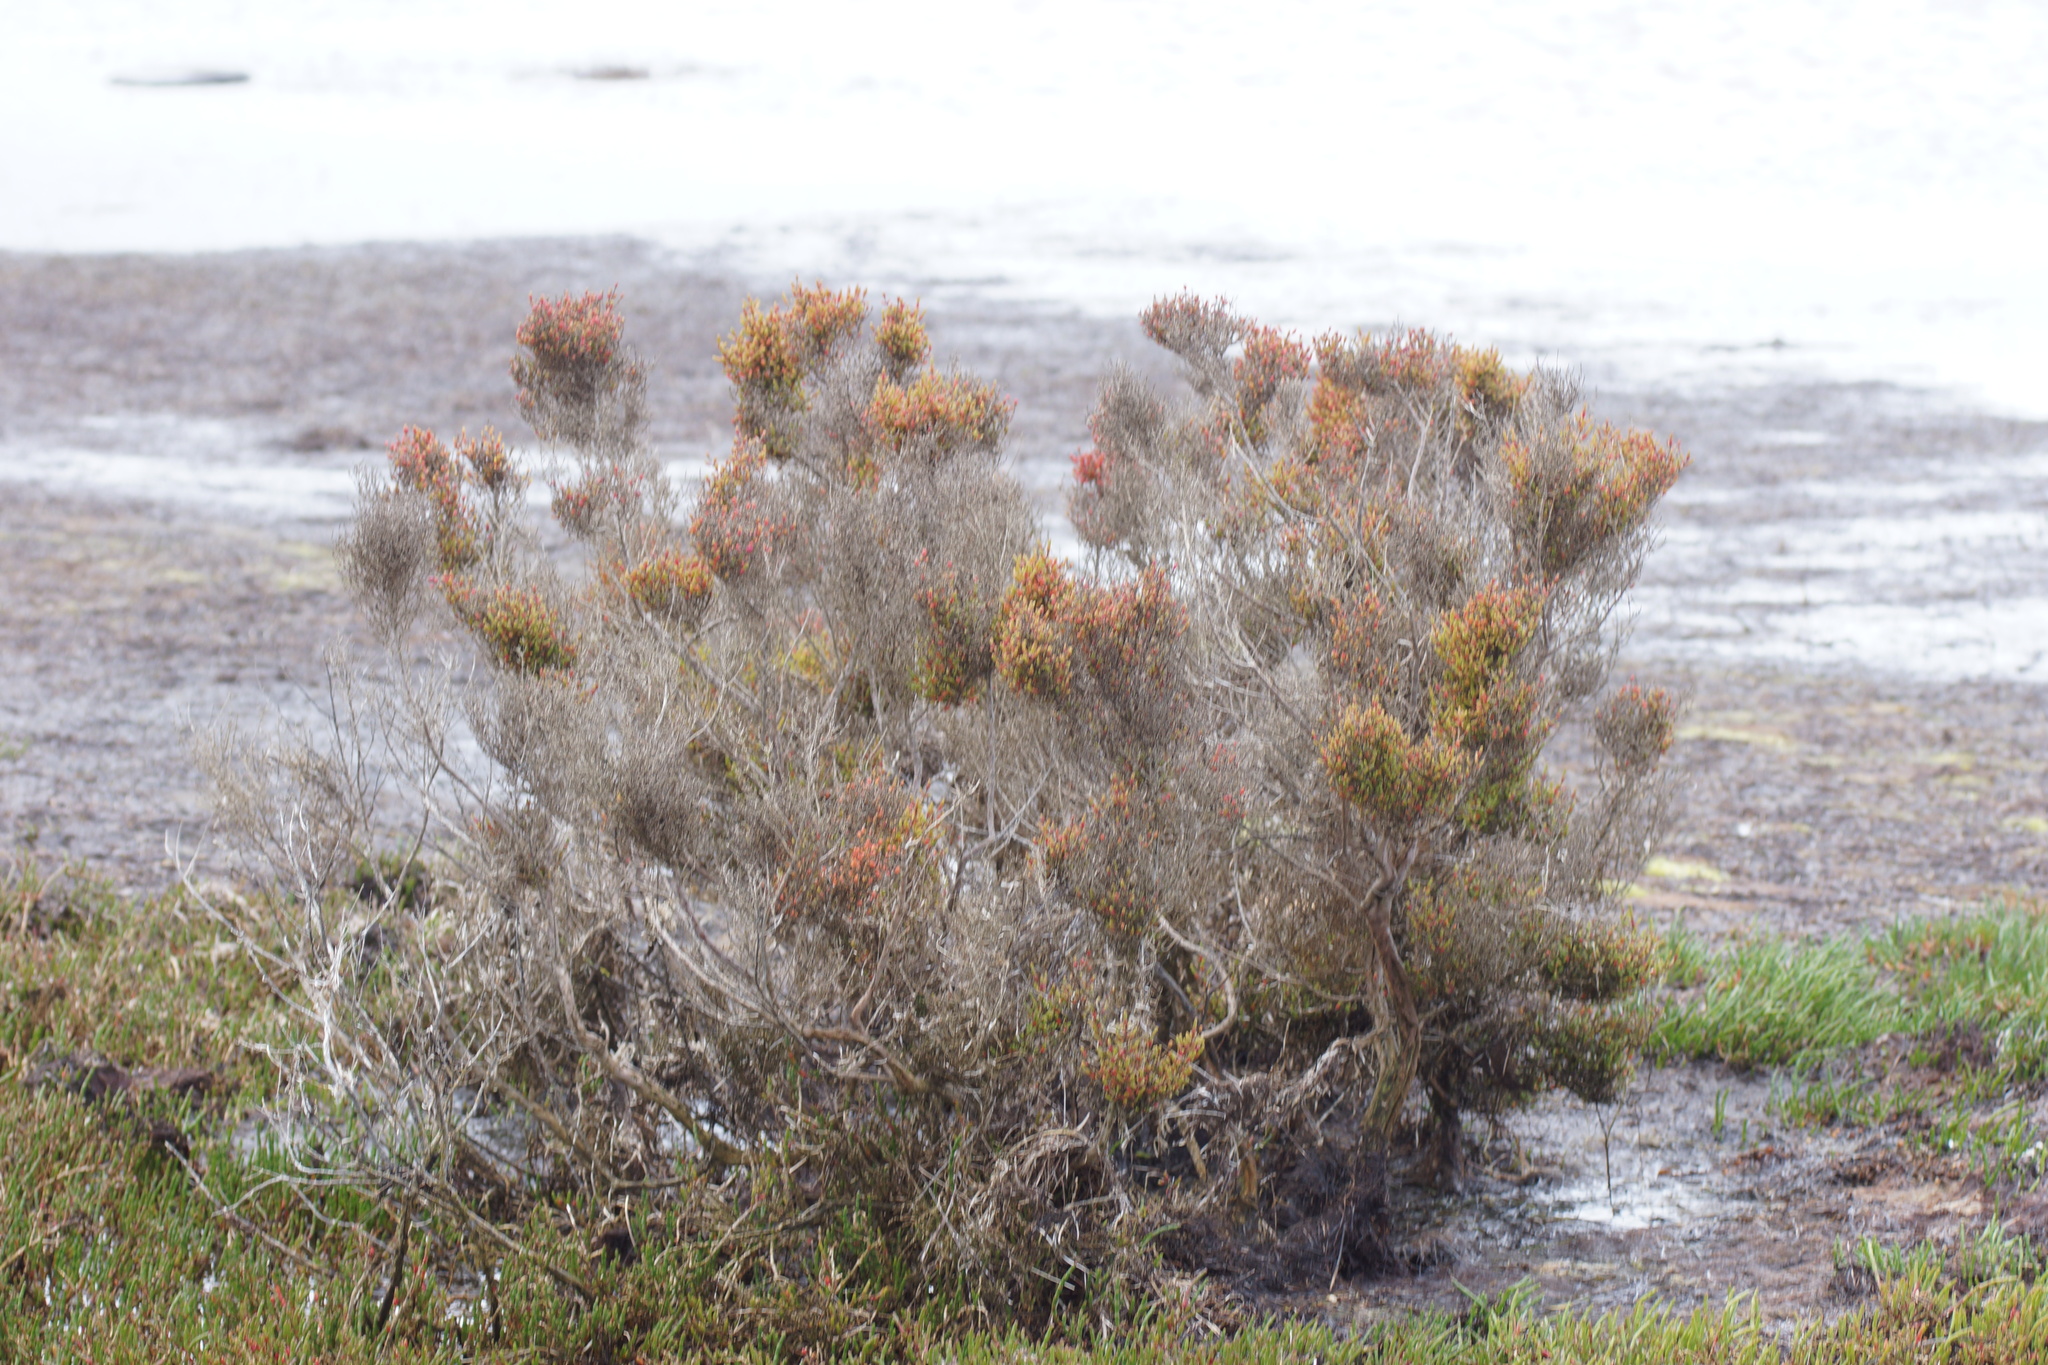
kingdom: Plantae
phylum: Tracheophyta
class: Magnoliopsida
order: Caryophyllales
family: Amaranthaceae
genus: Tecticornia
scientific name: Tecticornia arbuscula
